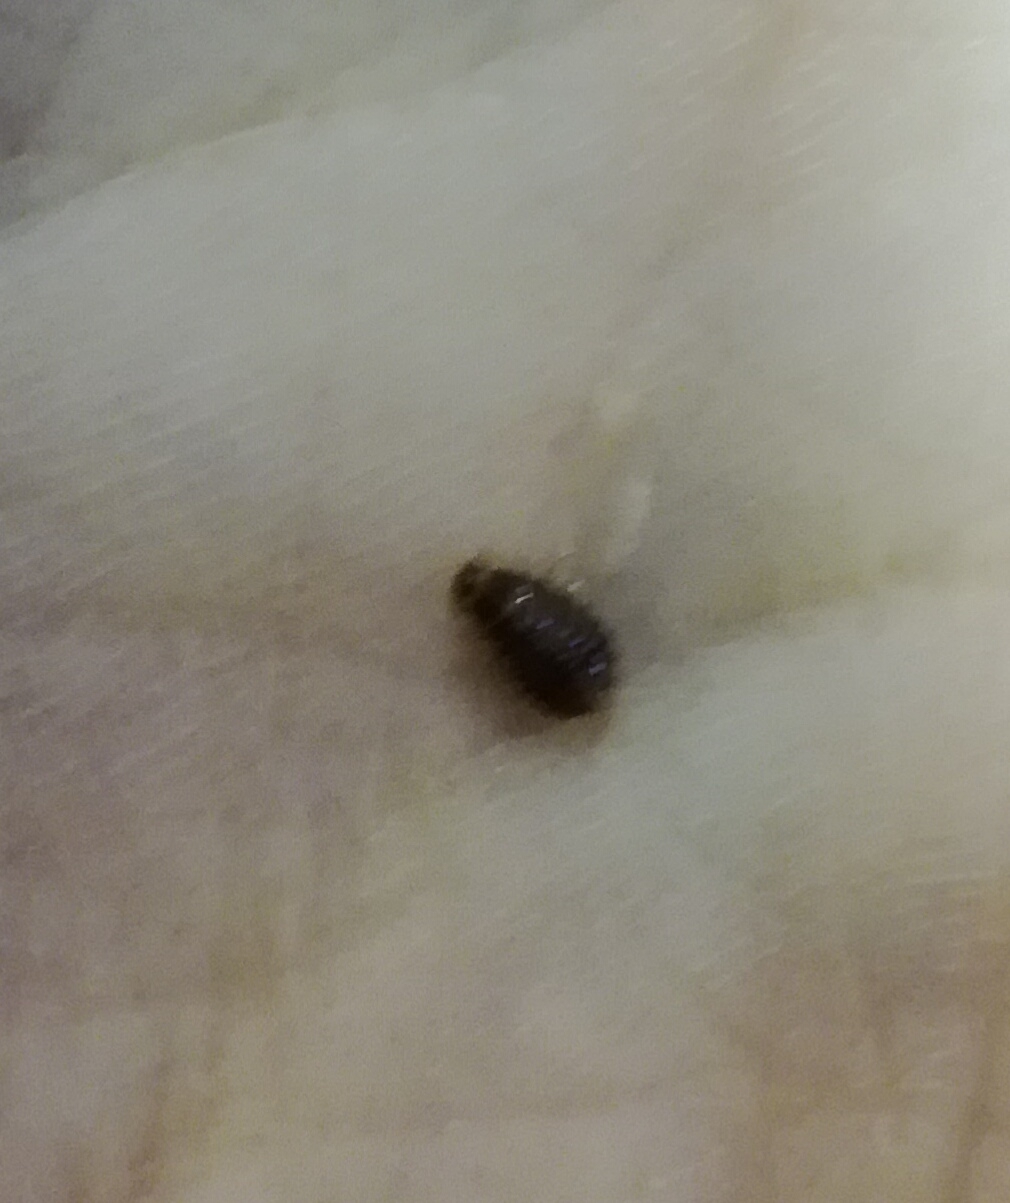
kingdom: Animalia
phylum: Arthropoda
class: Insecta
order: Hemiptera
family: Cimicidae
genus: Cimex
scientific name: Cimex lectularius
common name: Bed bug
